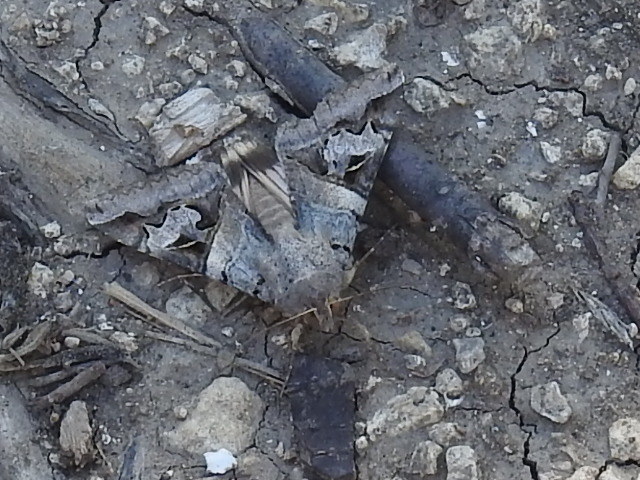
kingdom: Animalia
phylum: Arthropoda
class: Insecta
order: Lepidoptera
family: Erebidae
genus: Melipotis
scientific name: Melipotis indomita
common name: Moth
